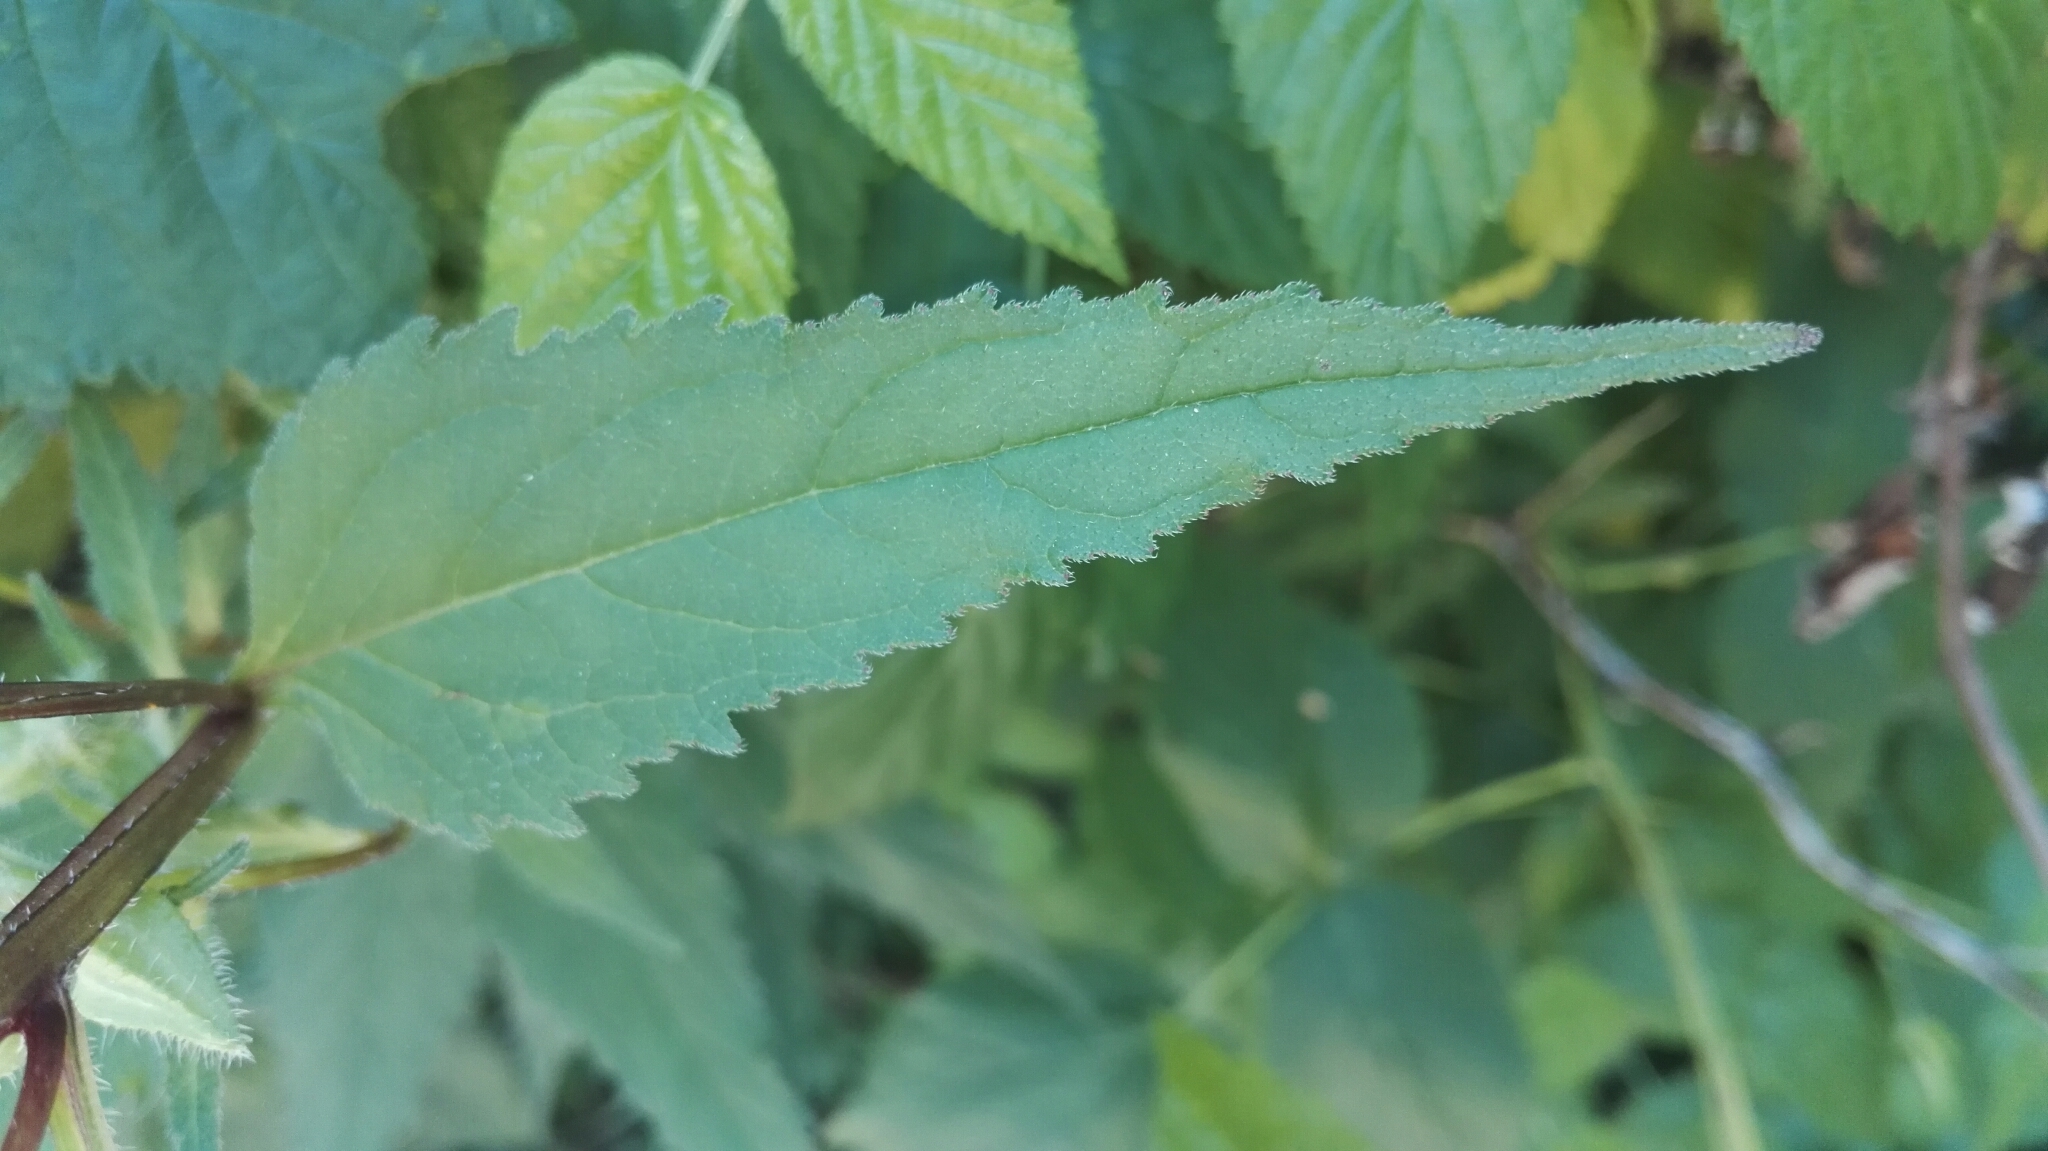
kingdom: Plantae
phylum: Tracheophyta
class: Magnoliopsida
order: Asterales
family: Campanulaceae
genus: Campanula
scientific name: Campanula trachelium
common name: Nettle-leaved bellflower
